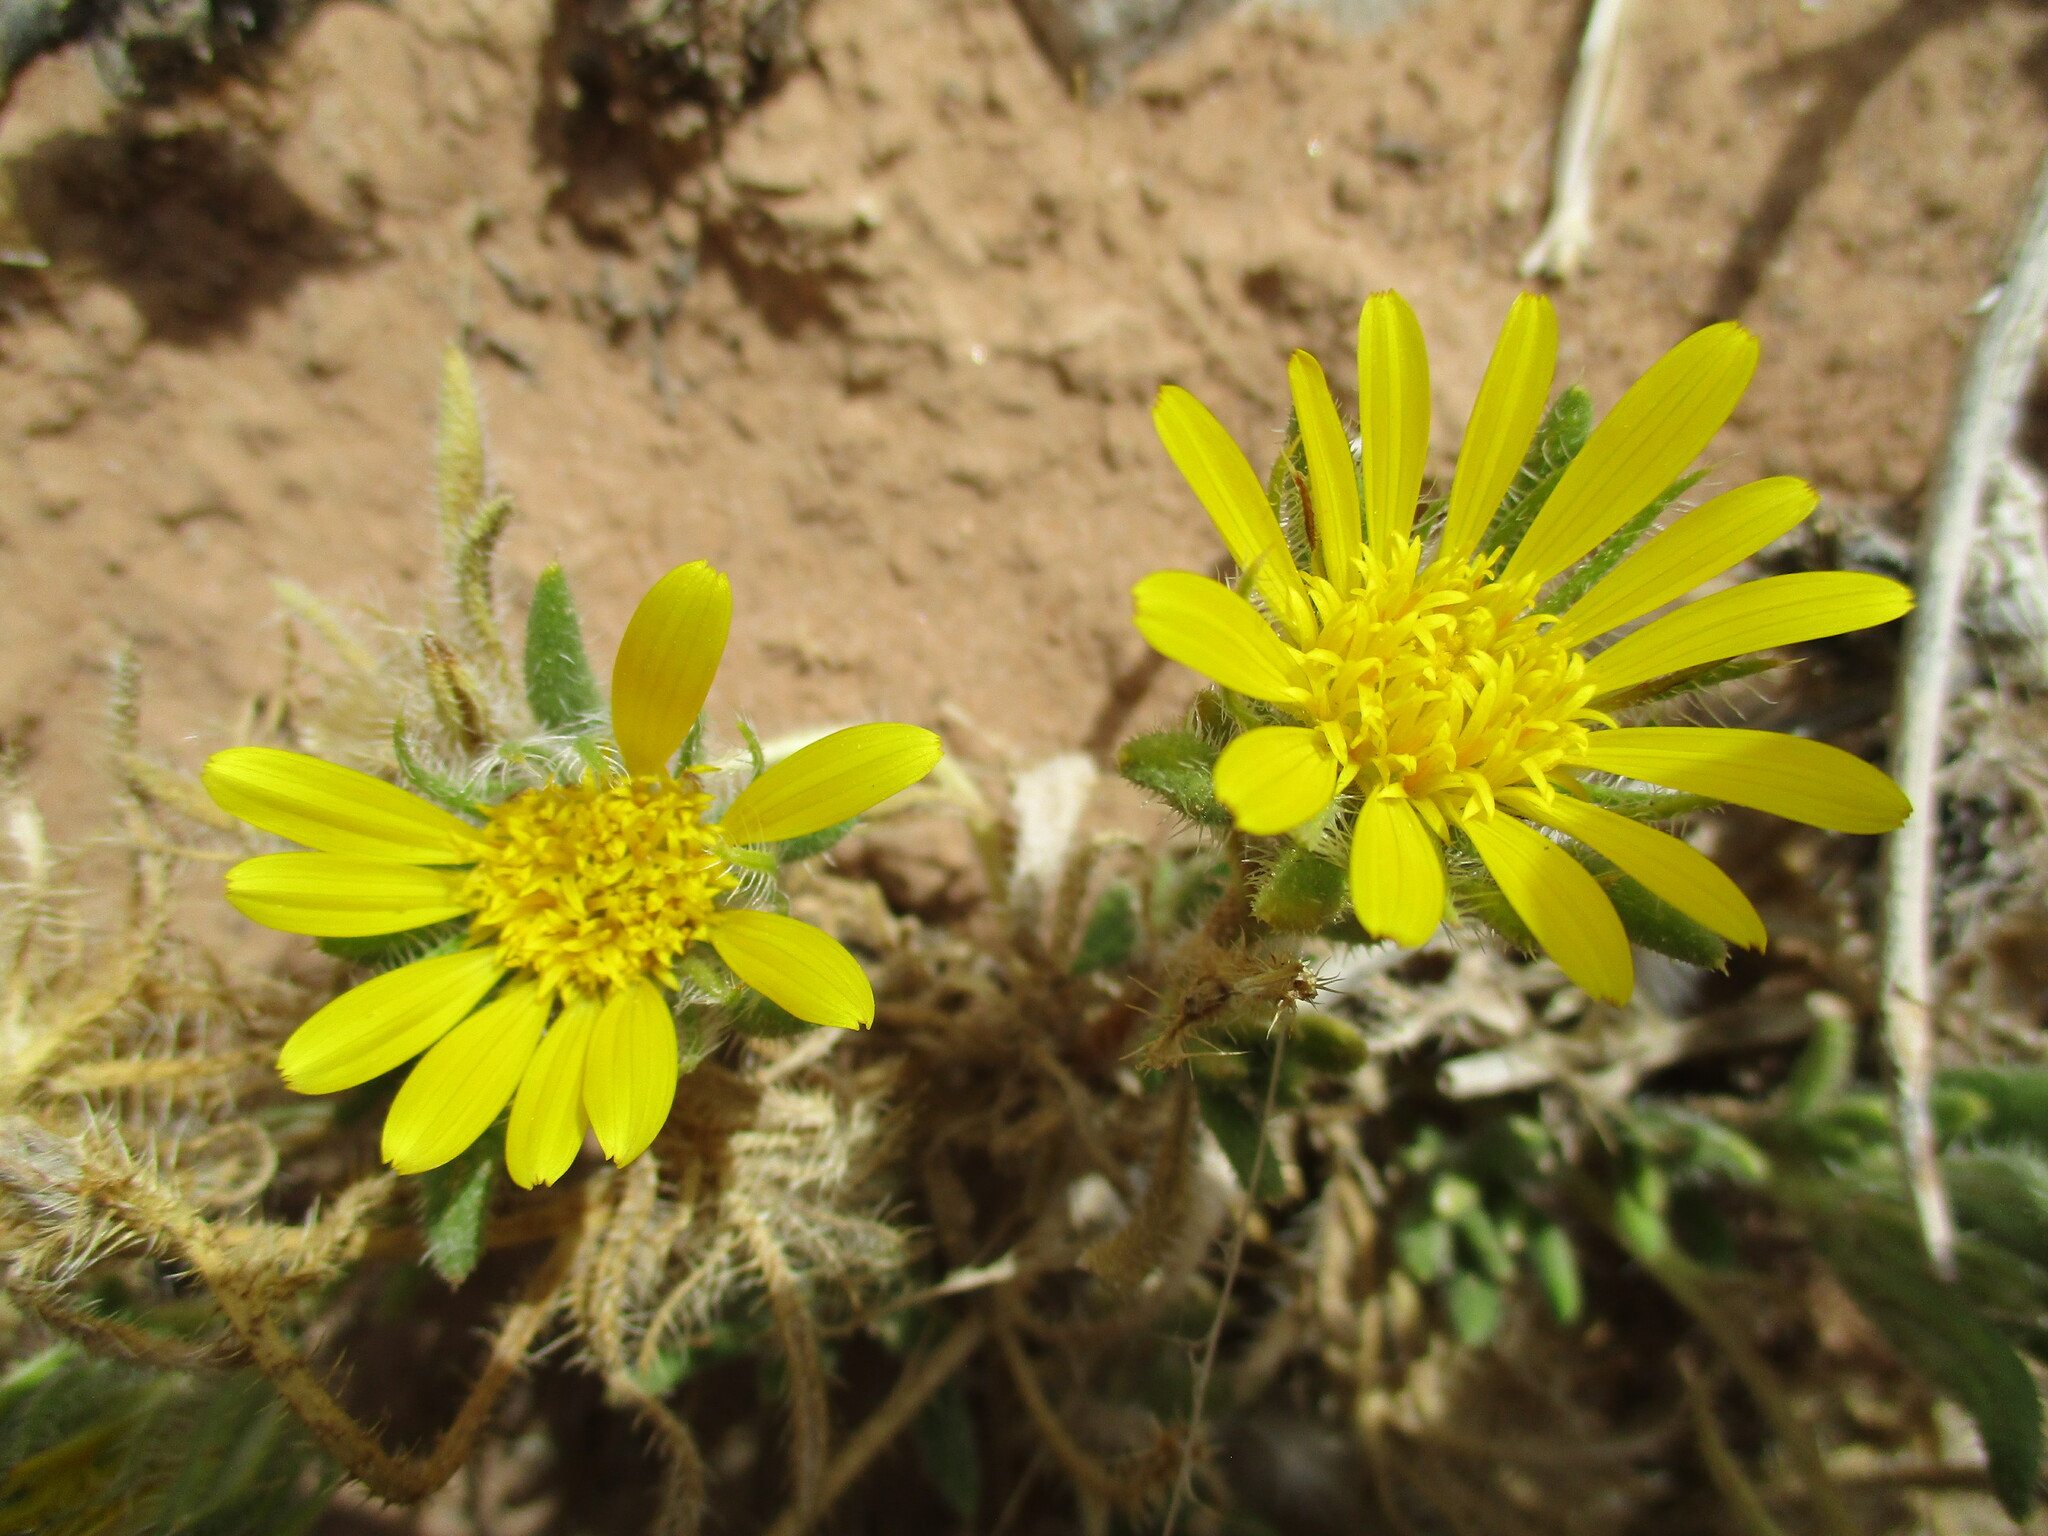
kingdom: Plantae
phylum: Tracheophyta
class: Magnoliopsida
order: Asterales
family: Asteraceae
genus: Roessleria
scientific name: Roessleria gazanioides
